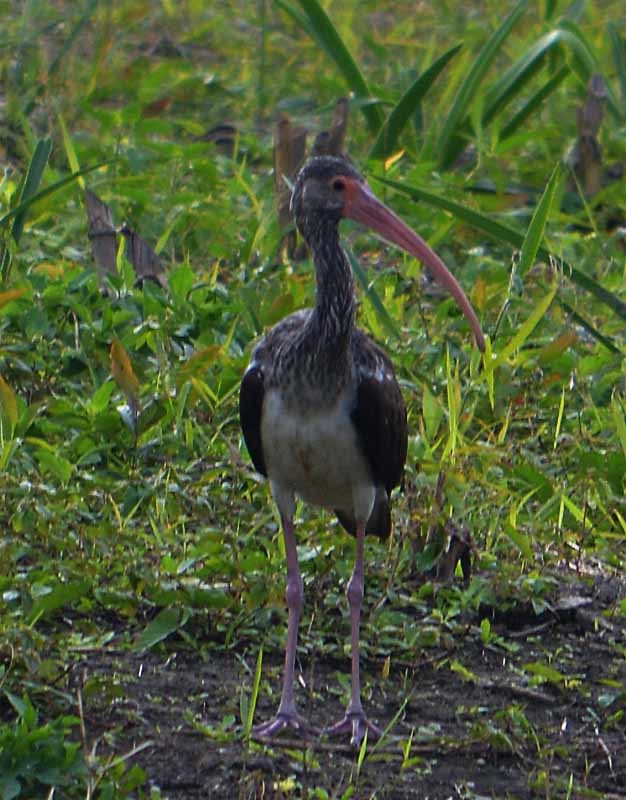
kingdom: Animalia
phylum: Chordata
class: Aves
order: Pelecaniformes
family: Threskiornithidae
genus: Eudocimus
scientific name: Eudocimus albus
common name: White ibis
